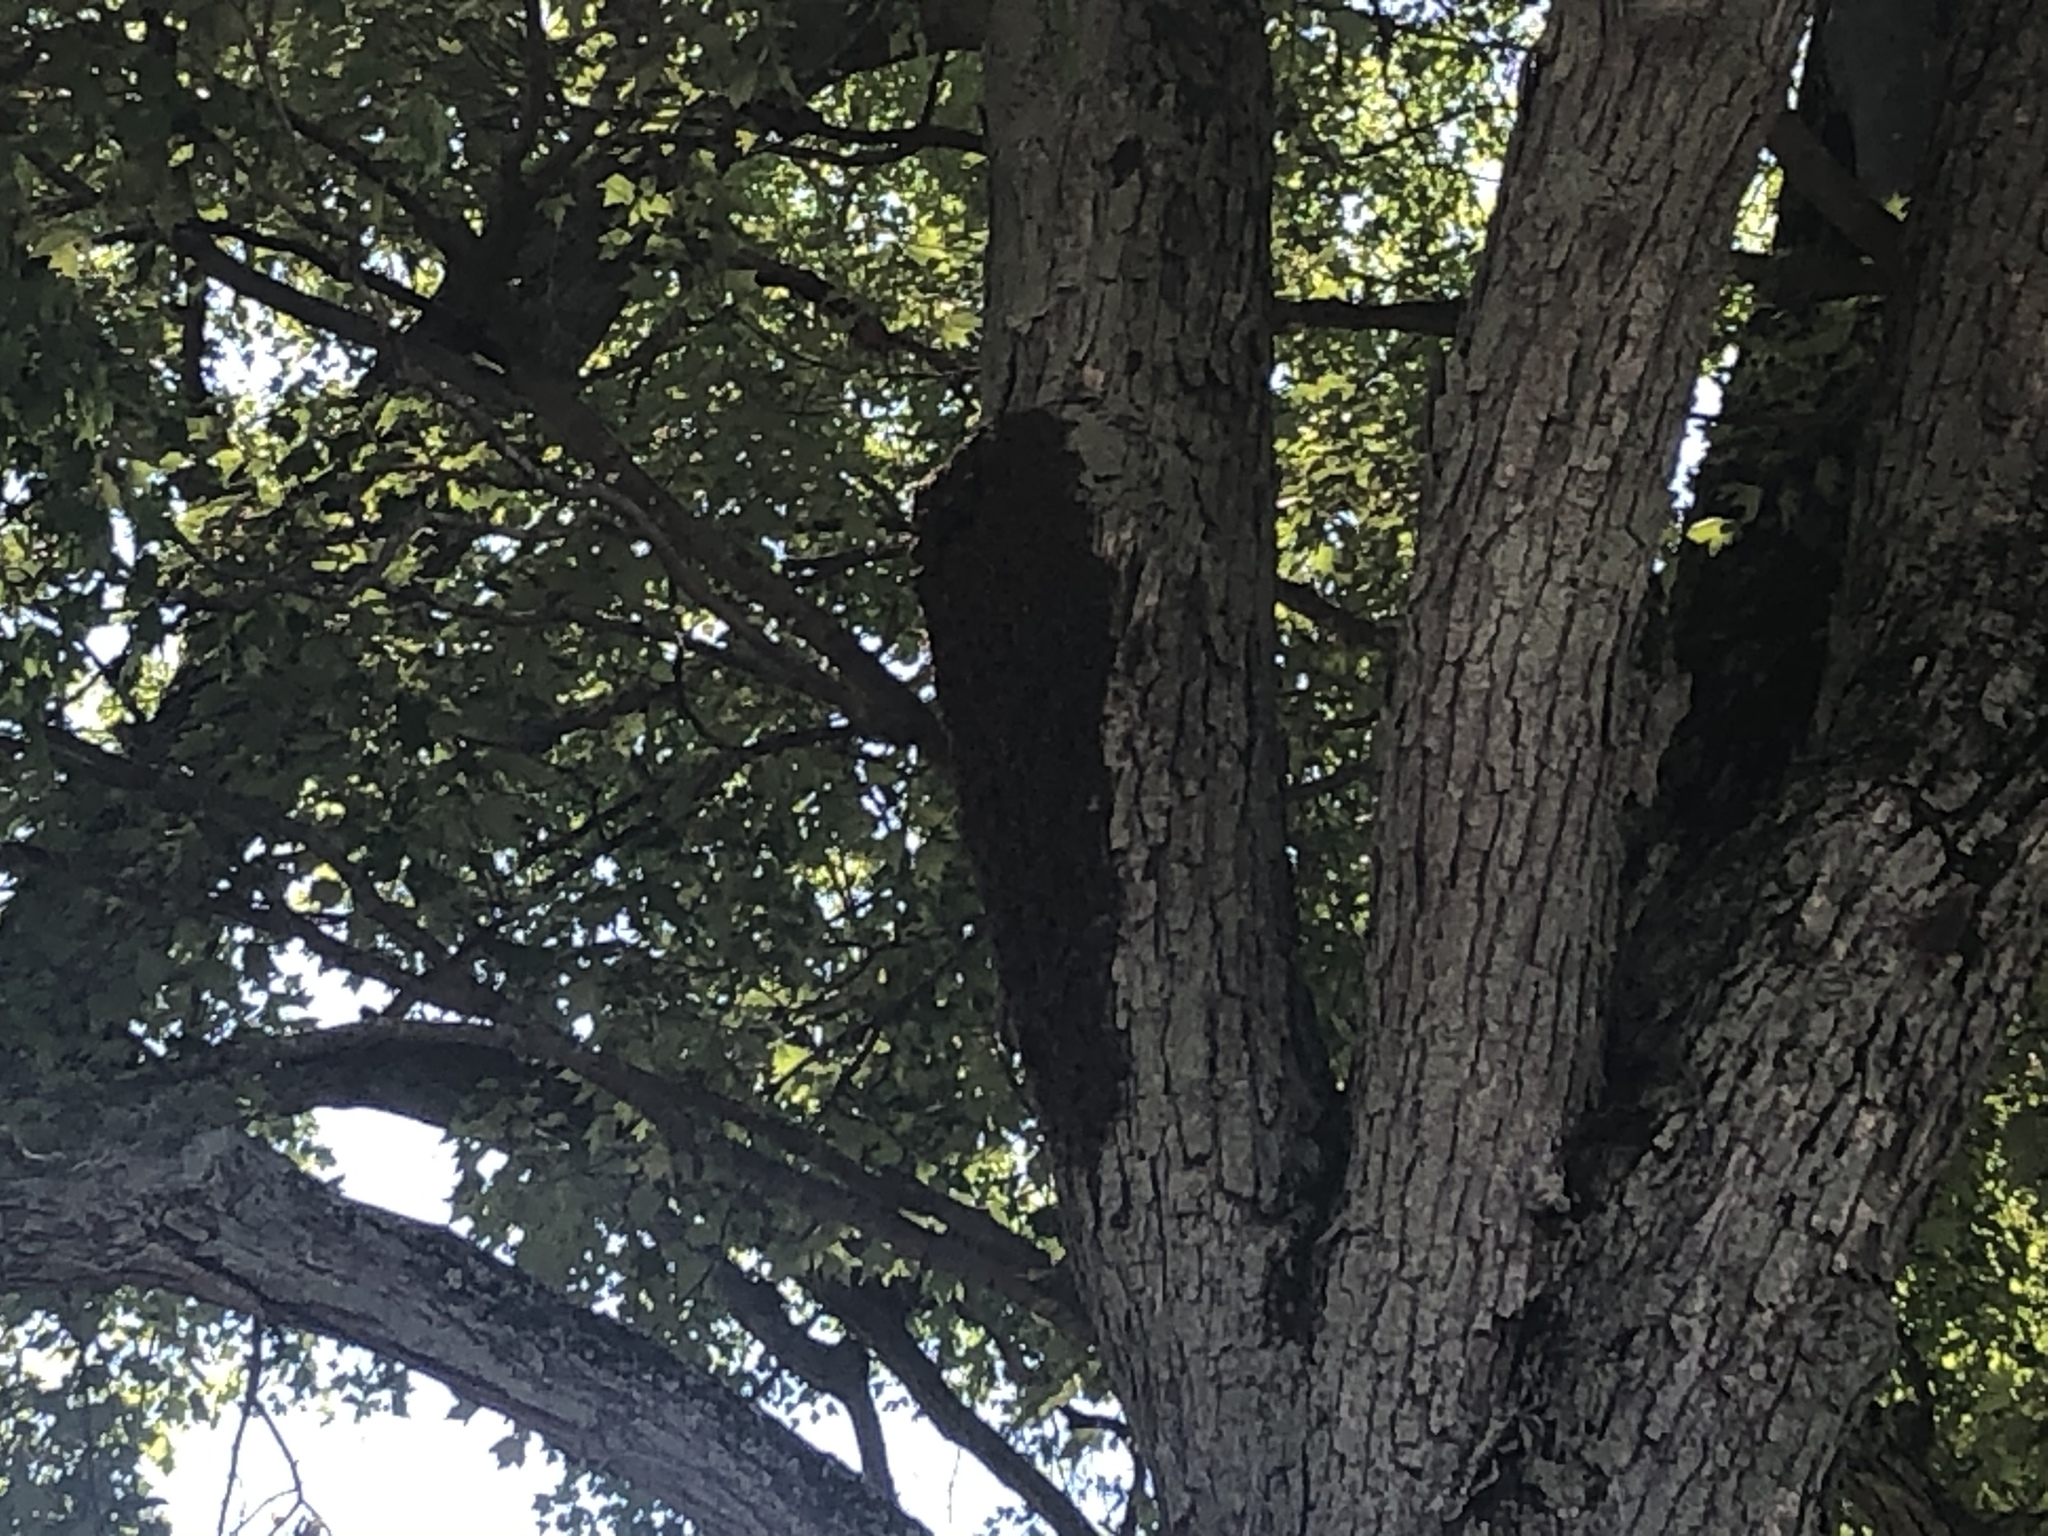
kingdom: Animalia
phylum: Arthropoda
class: Insecta
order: Hymenoptera
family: Apidae
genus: Apis
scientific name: Apis mellifera
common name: Honey bee
